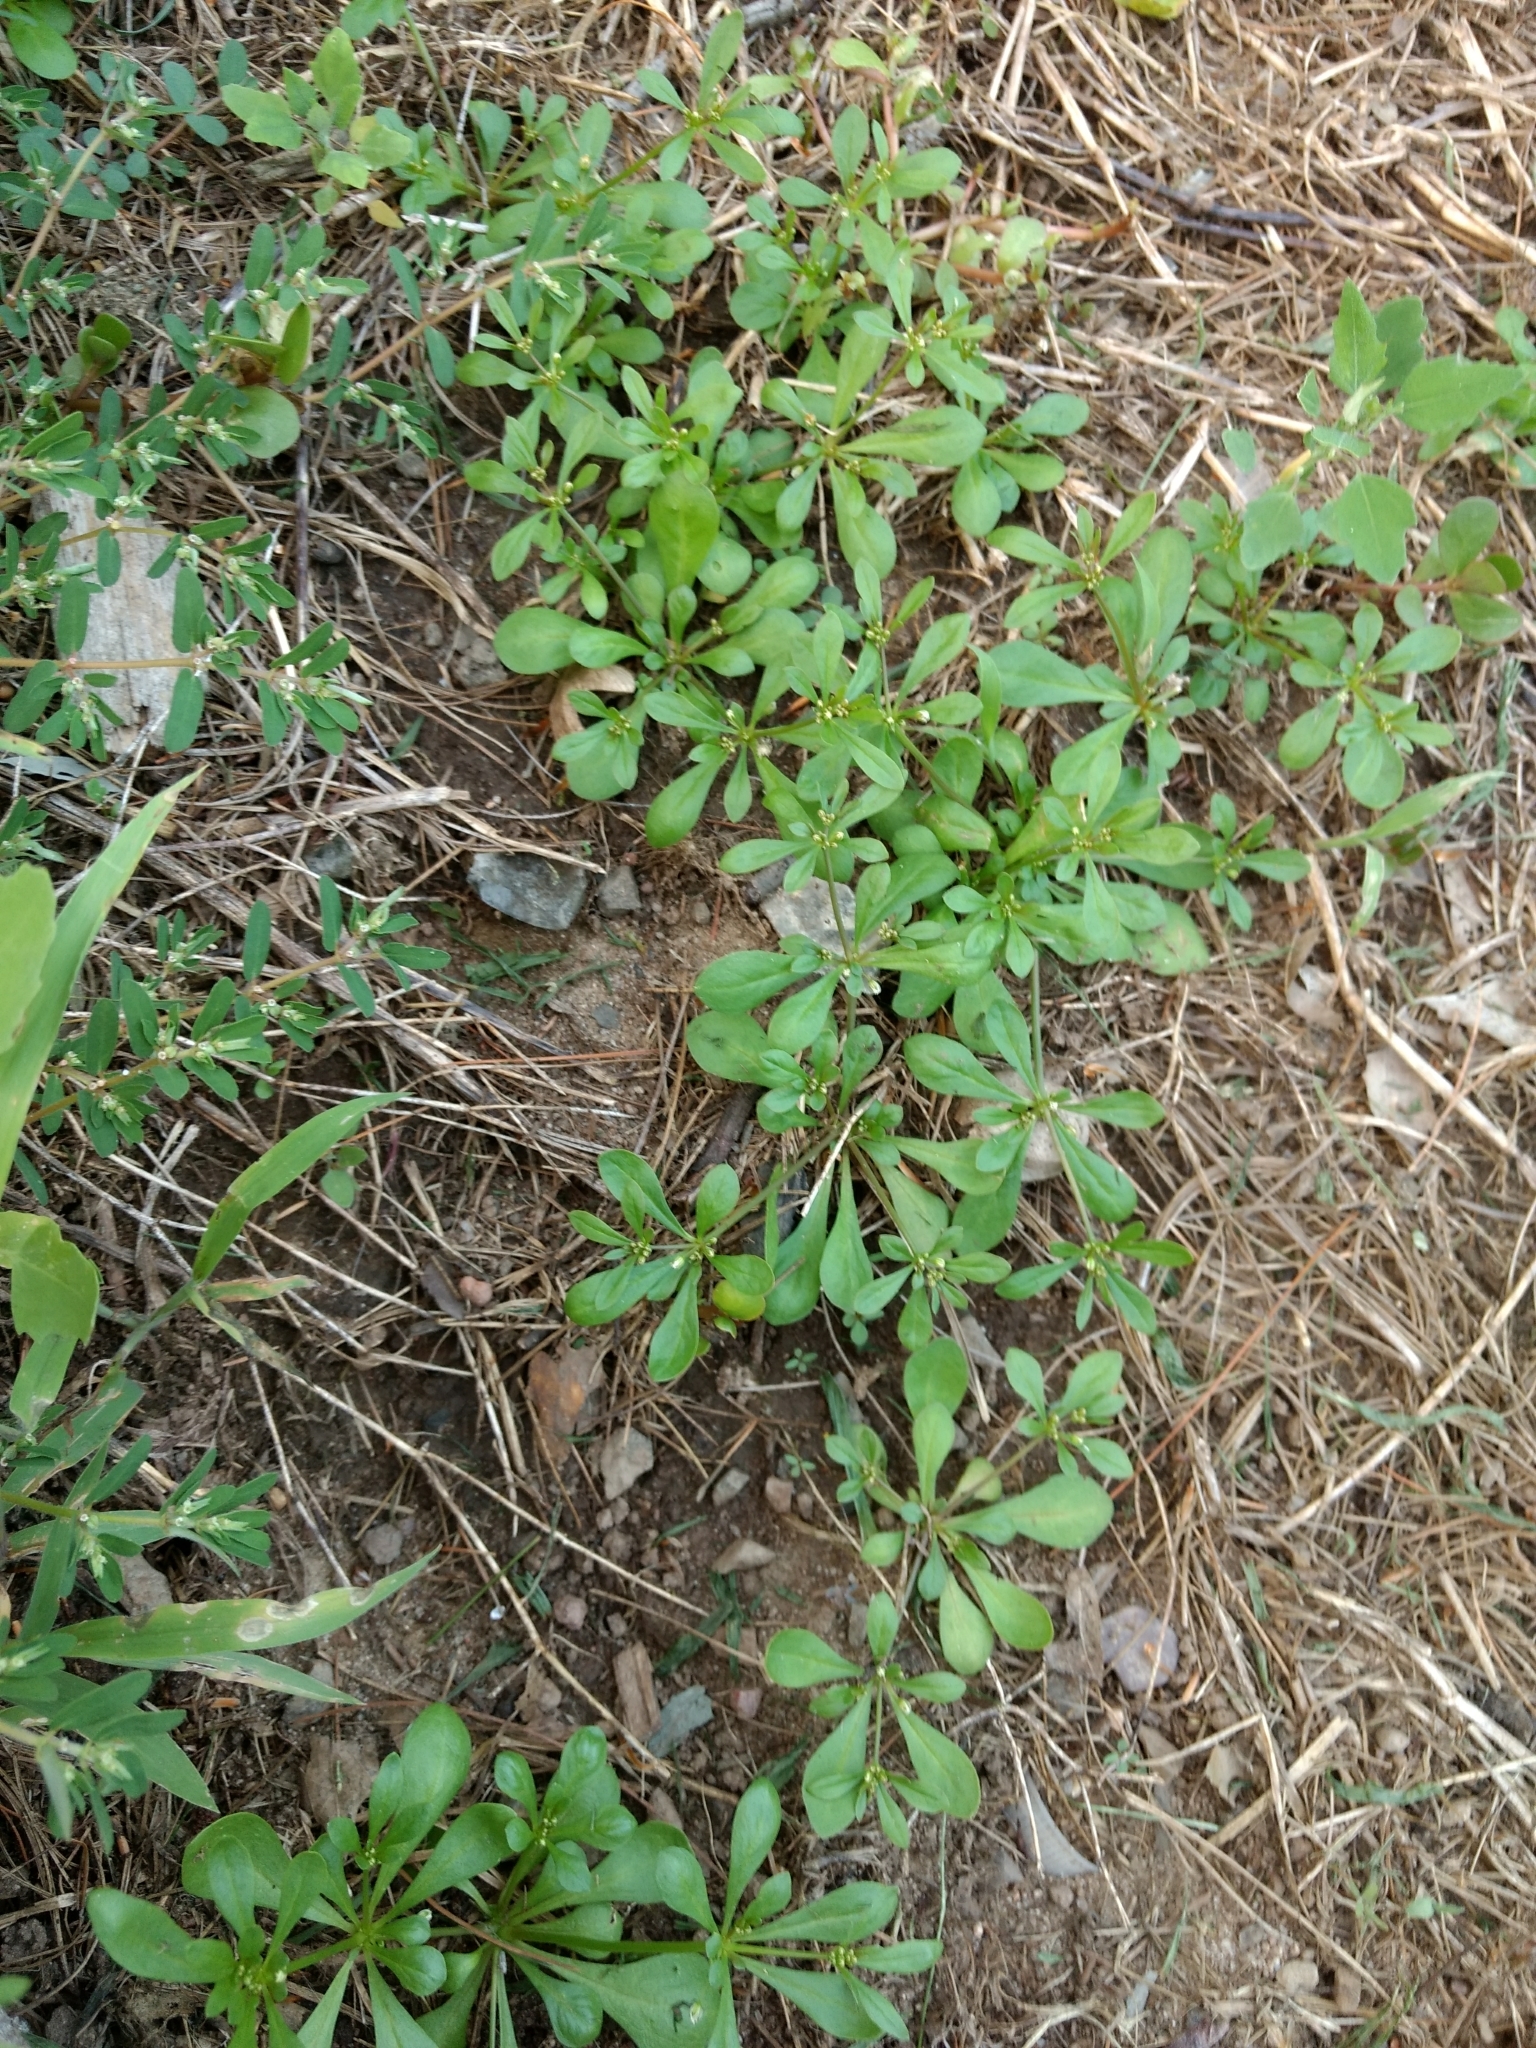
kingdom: Plantae
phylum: Tracheophyta
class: Magnoliopsida
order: Caryophyllales
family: Molluginaceae
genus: Mollugo
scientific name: Mollugo verticillata
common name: Green carpetweed
